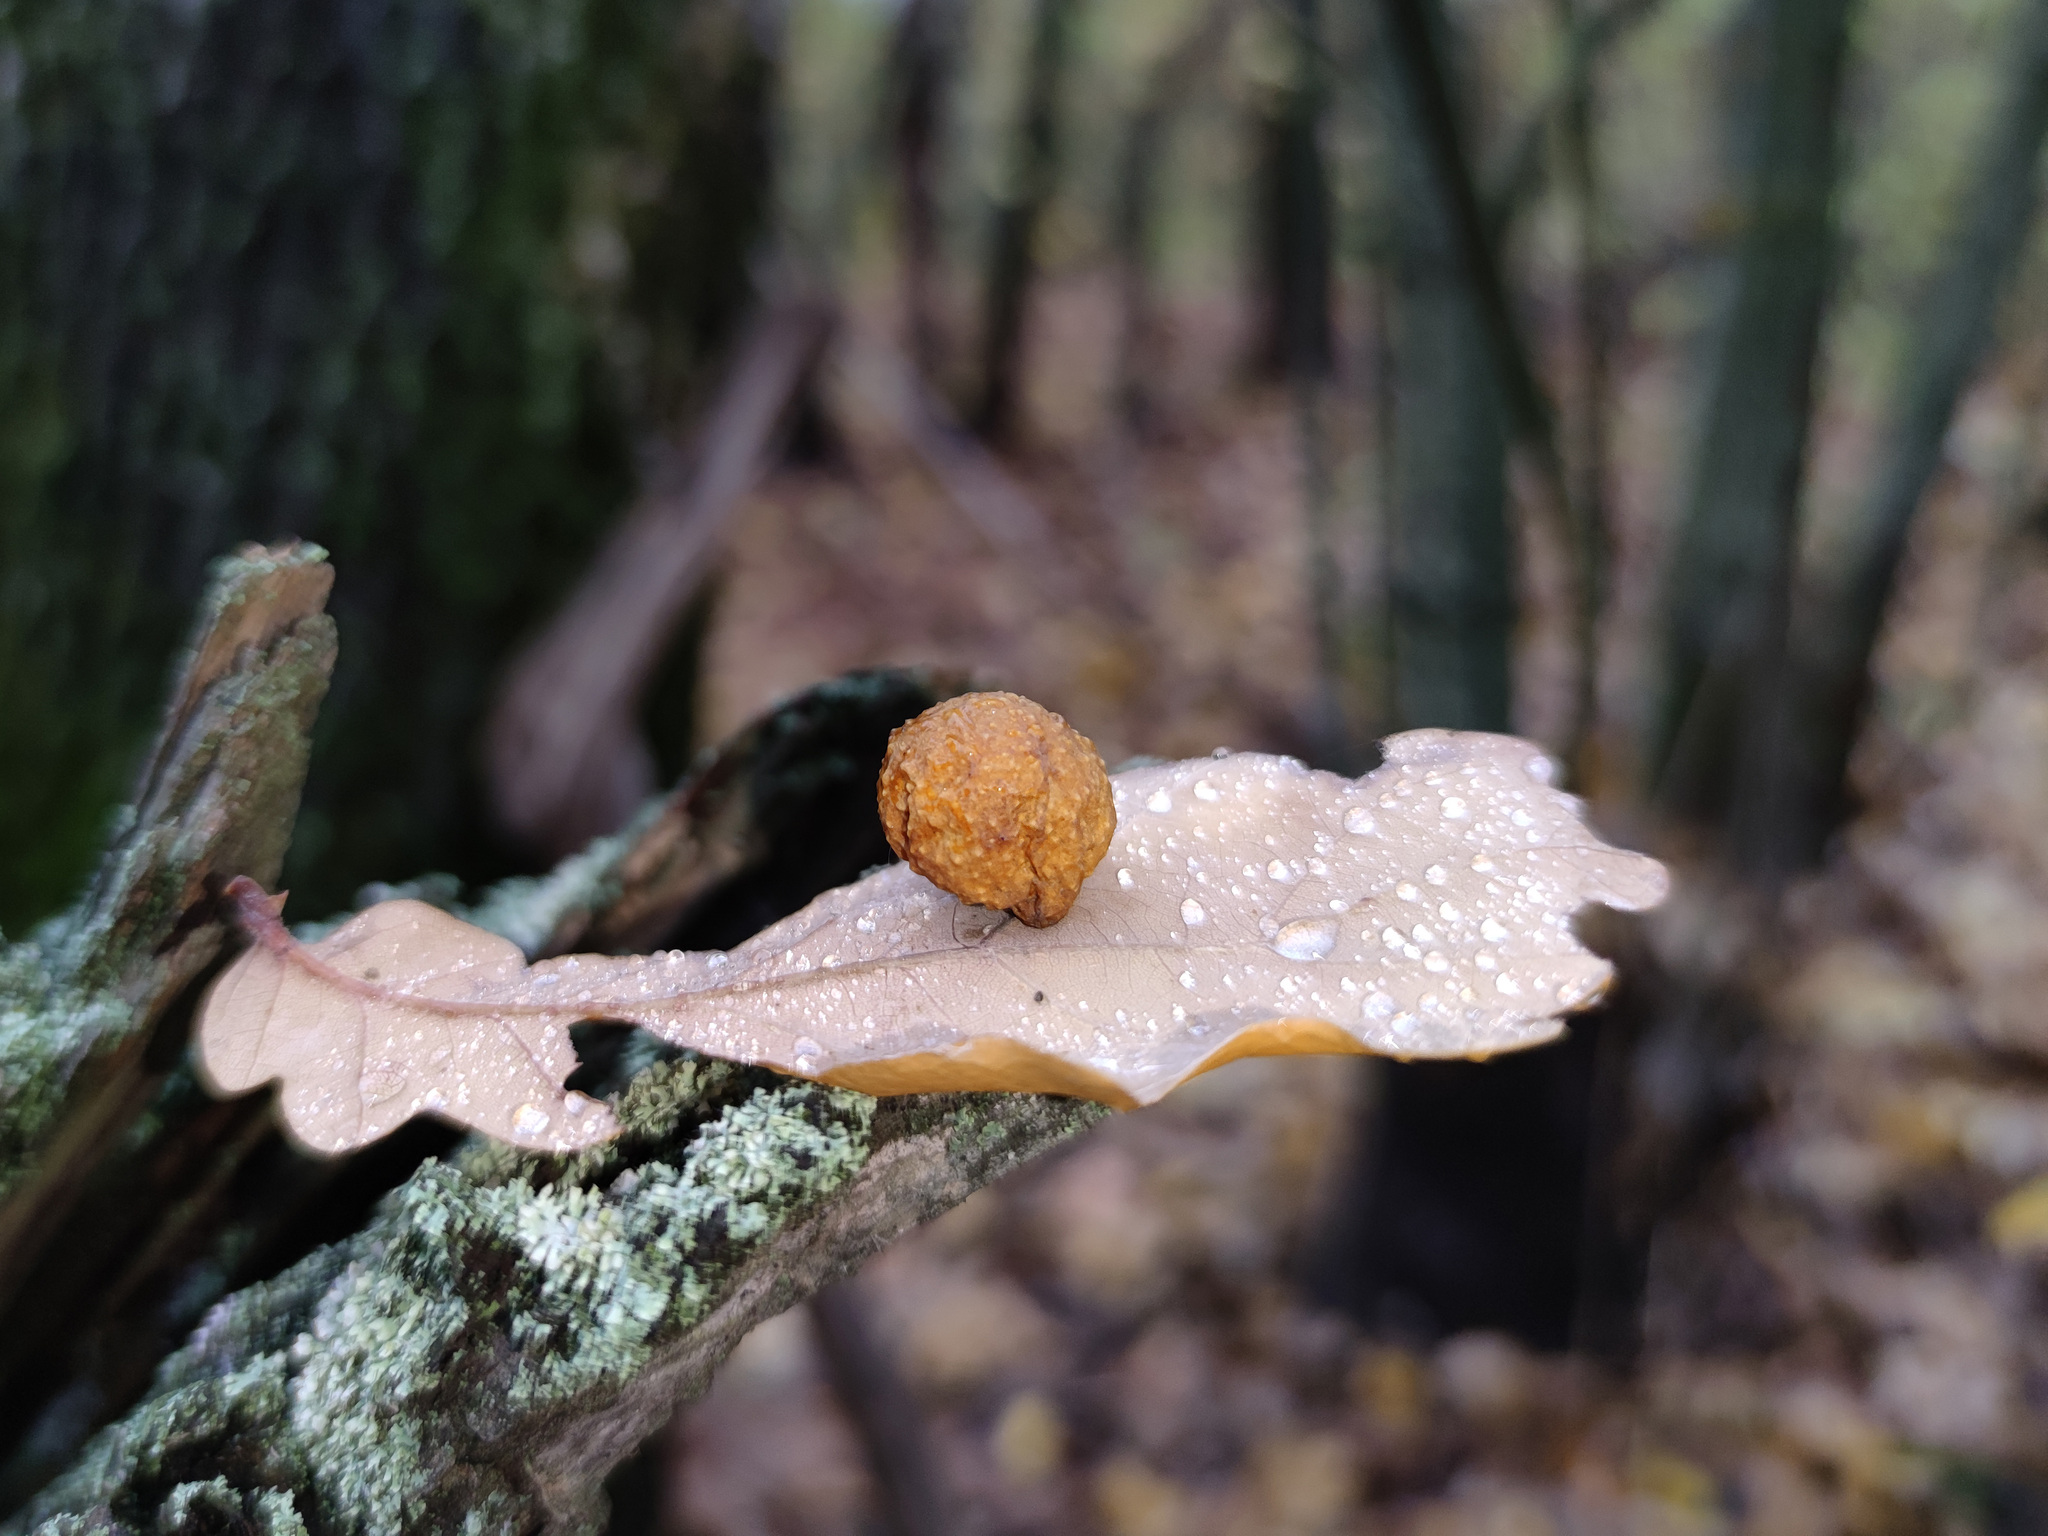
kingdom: Animalia
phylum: Arthropoda
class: Insecta
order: Hymenoptera
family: Cynipidae
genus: Cynips
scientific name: Cynips quercusfolii
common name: Cherry gall
